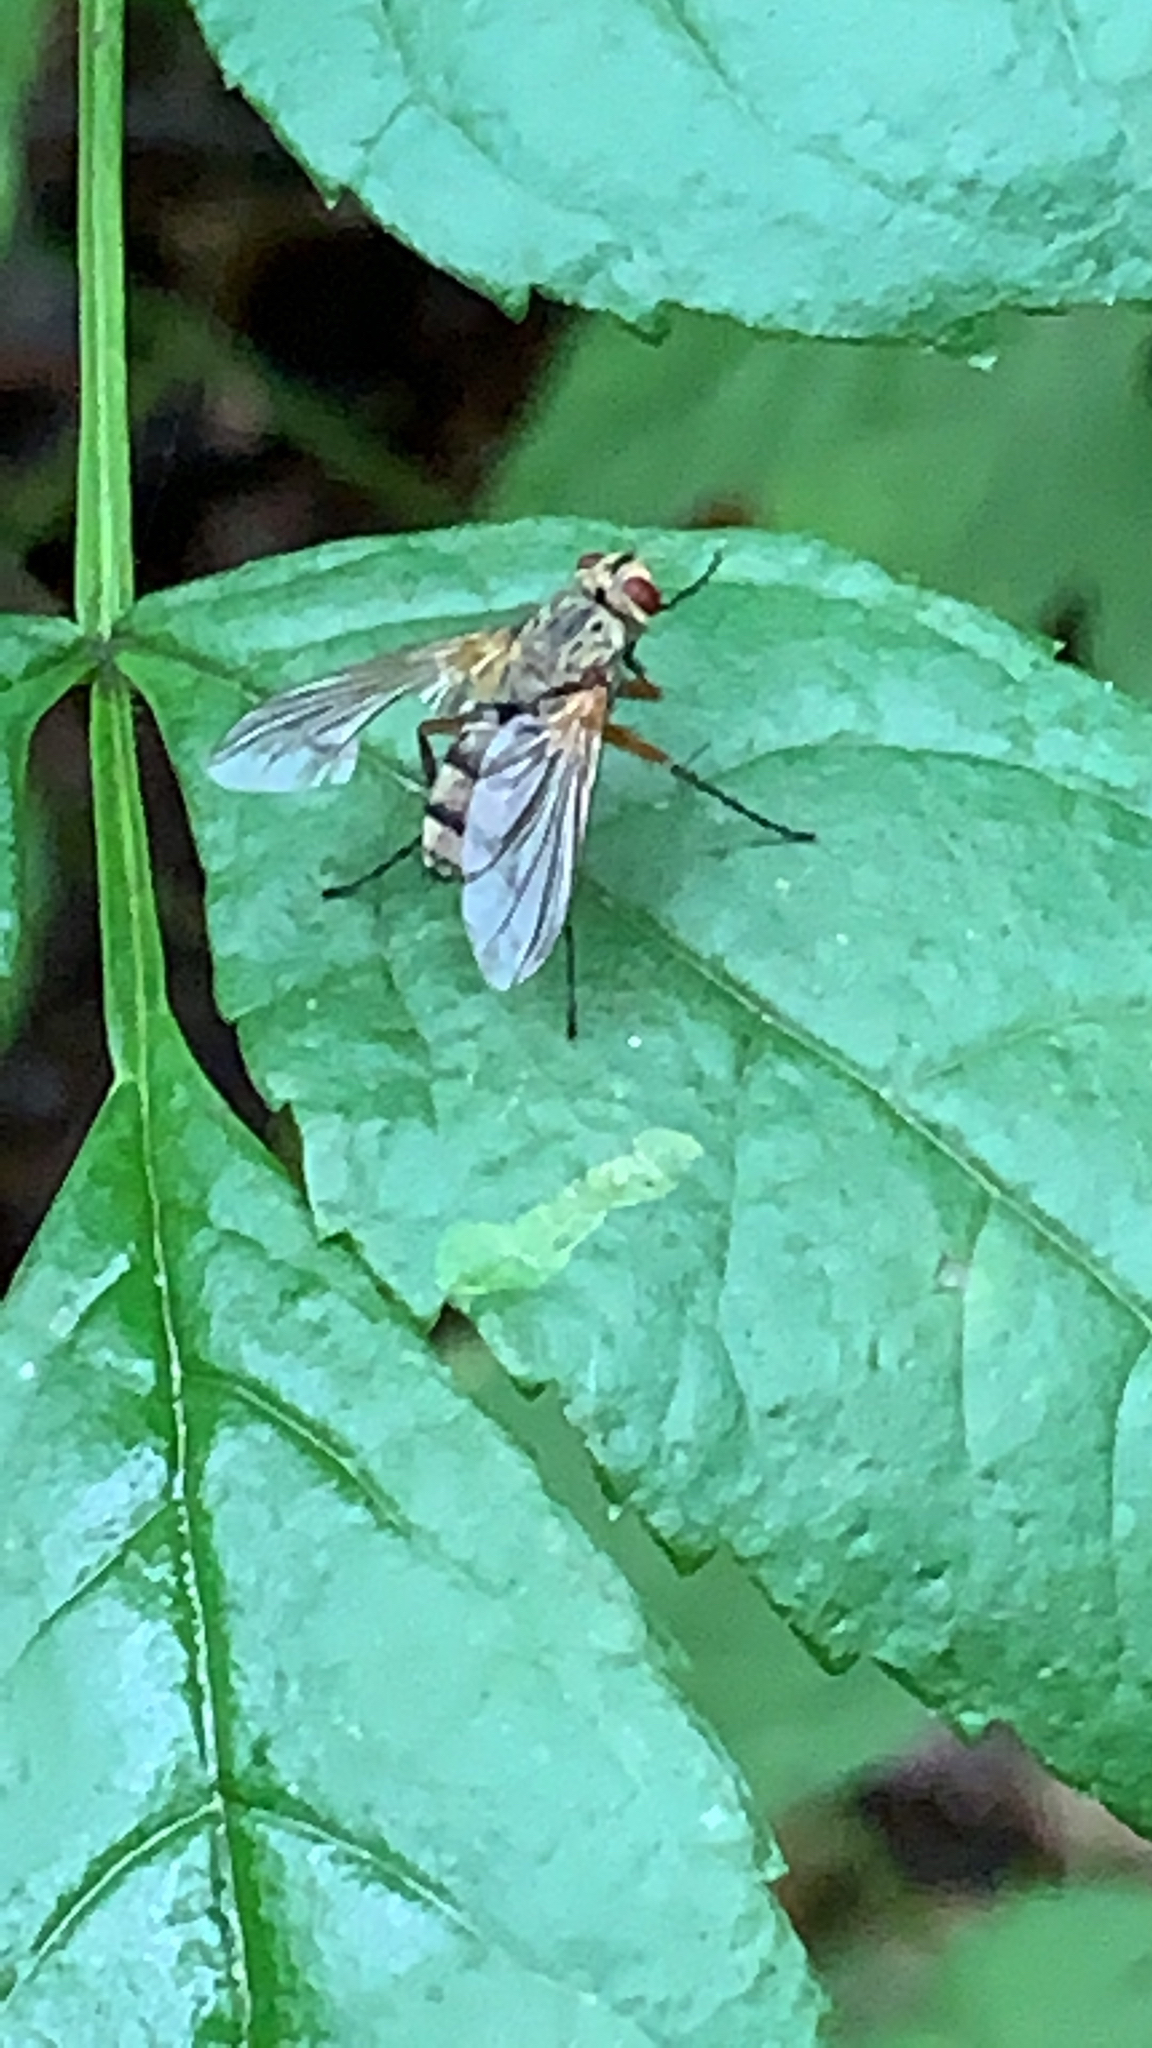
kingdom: Animalia
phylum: Arthropoda
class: Insecta
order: Diptera
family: Tachinidae
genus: Dexiosoma
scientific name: Dexiosoma caninum
